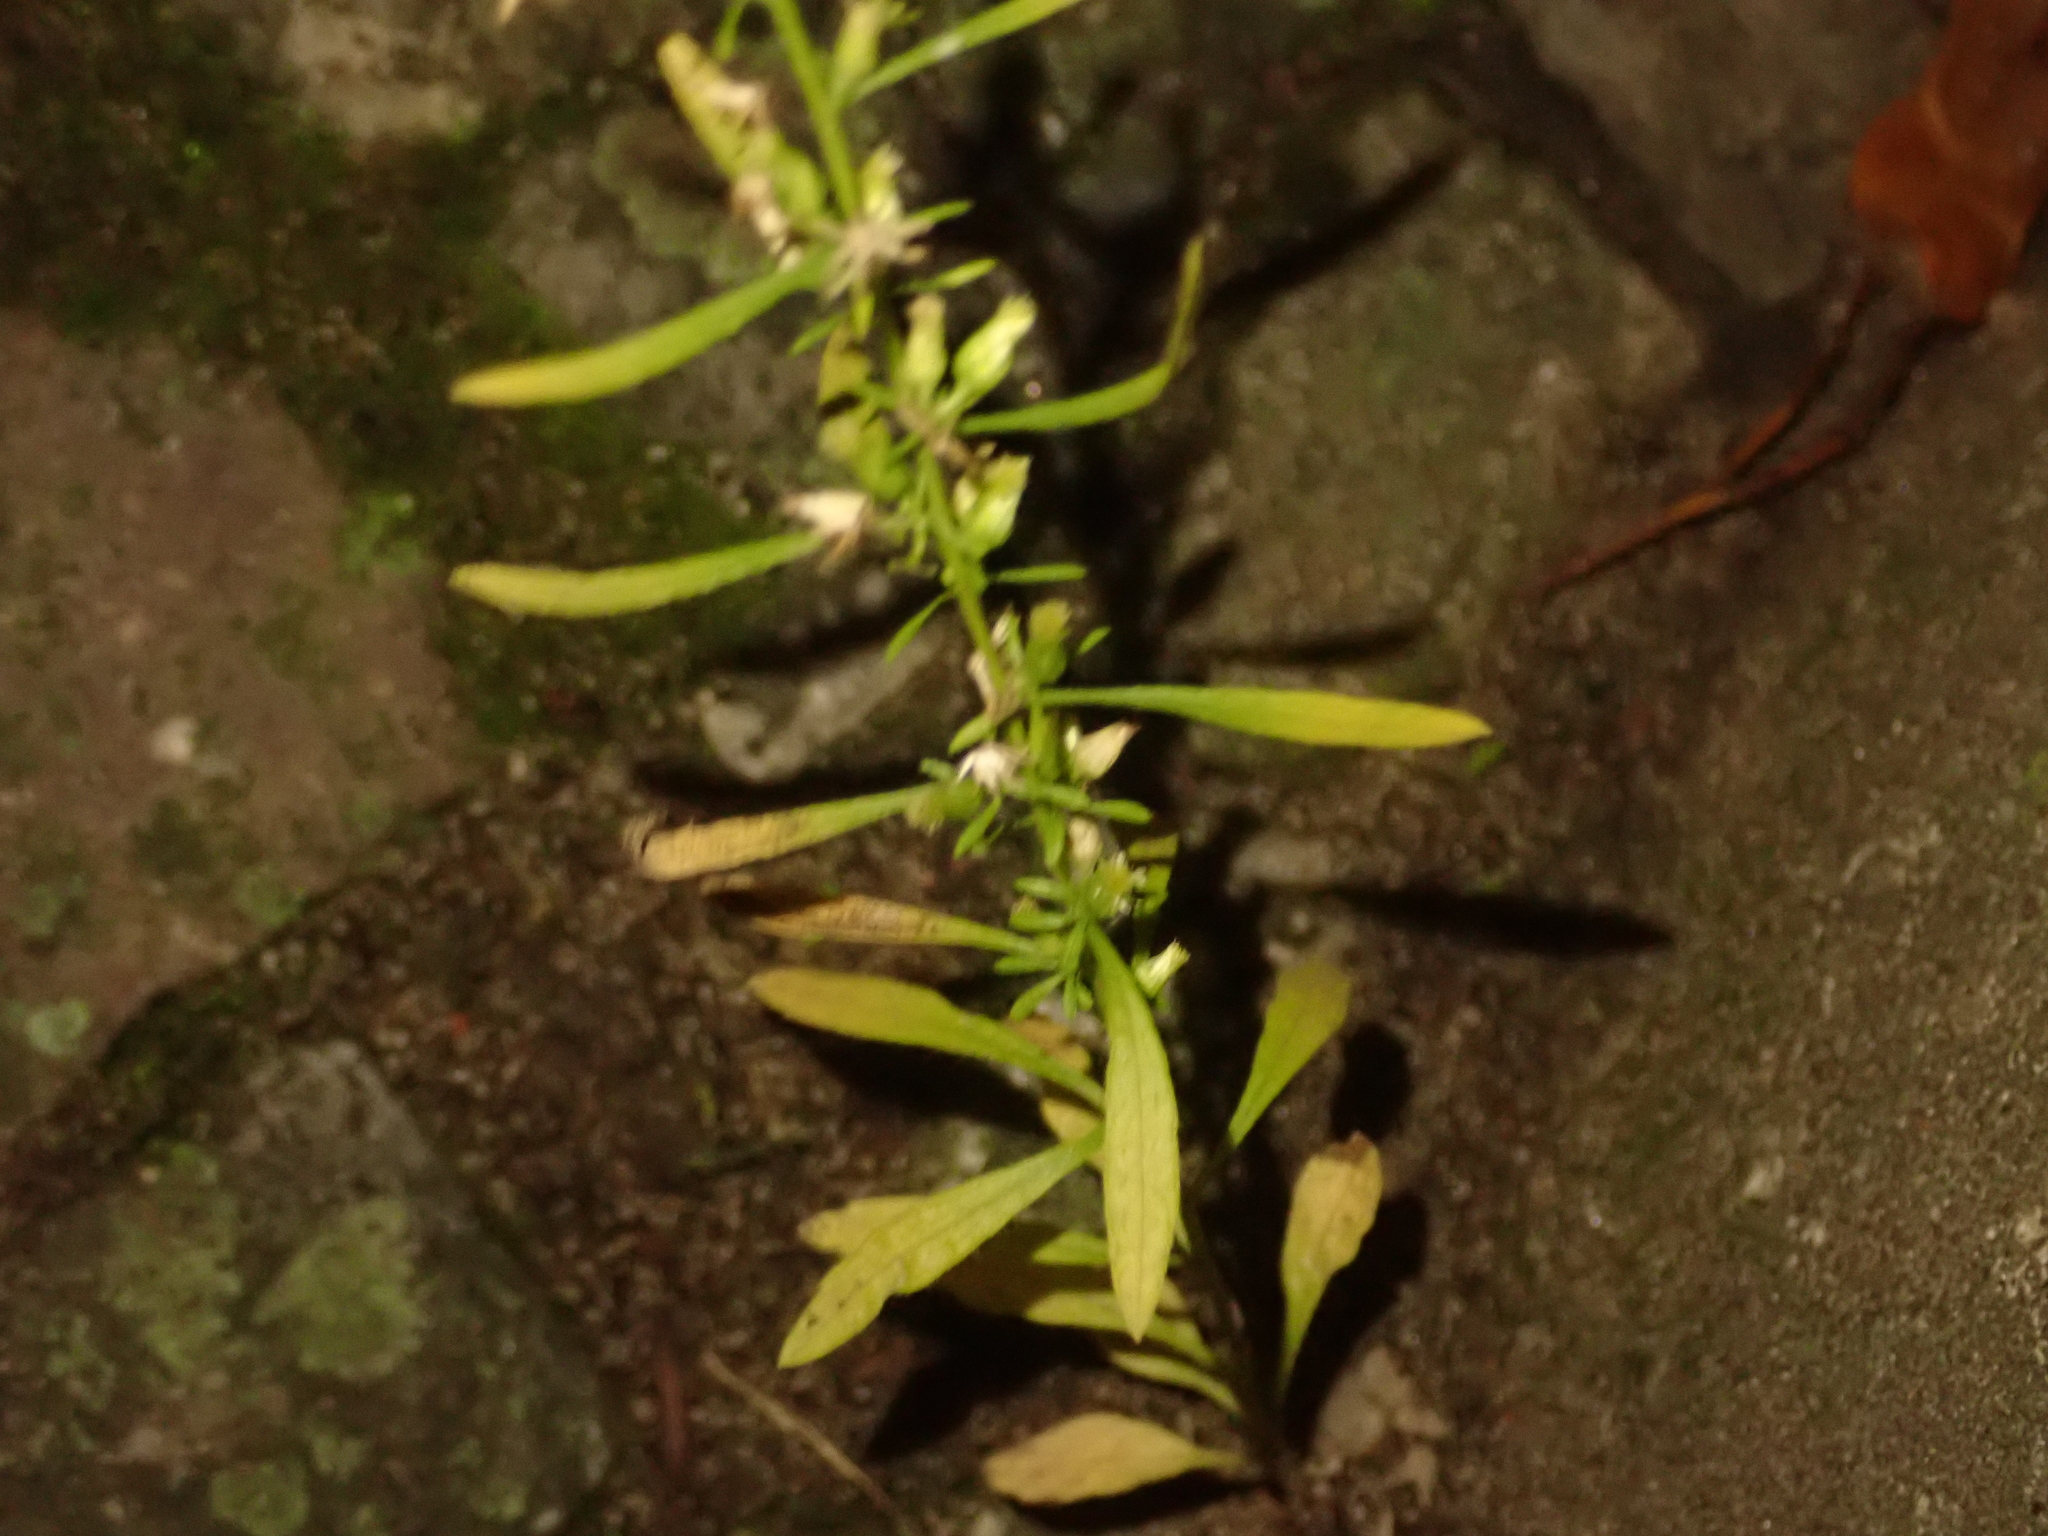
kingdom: Plantae
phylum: Tracheophyta
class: Magnoliopsida
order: Asterales
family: Asteraceae
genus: Erigeron
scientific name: Erigeron canadensis
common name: Canadian fleabane
